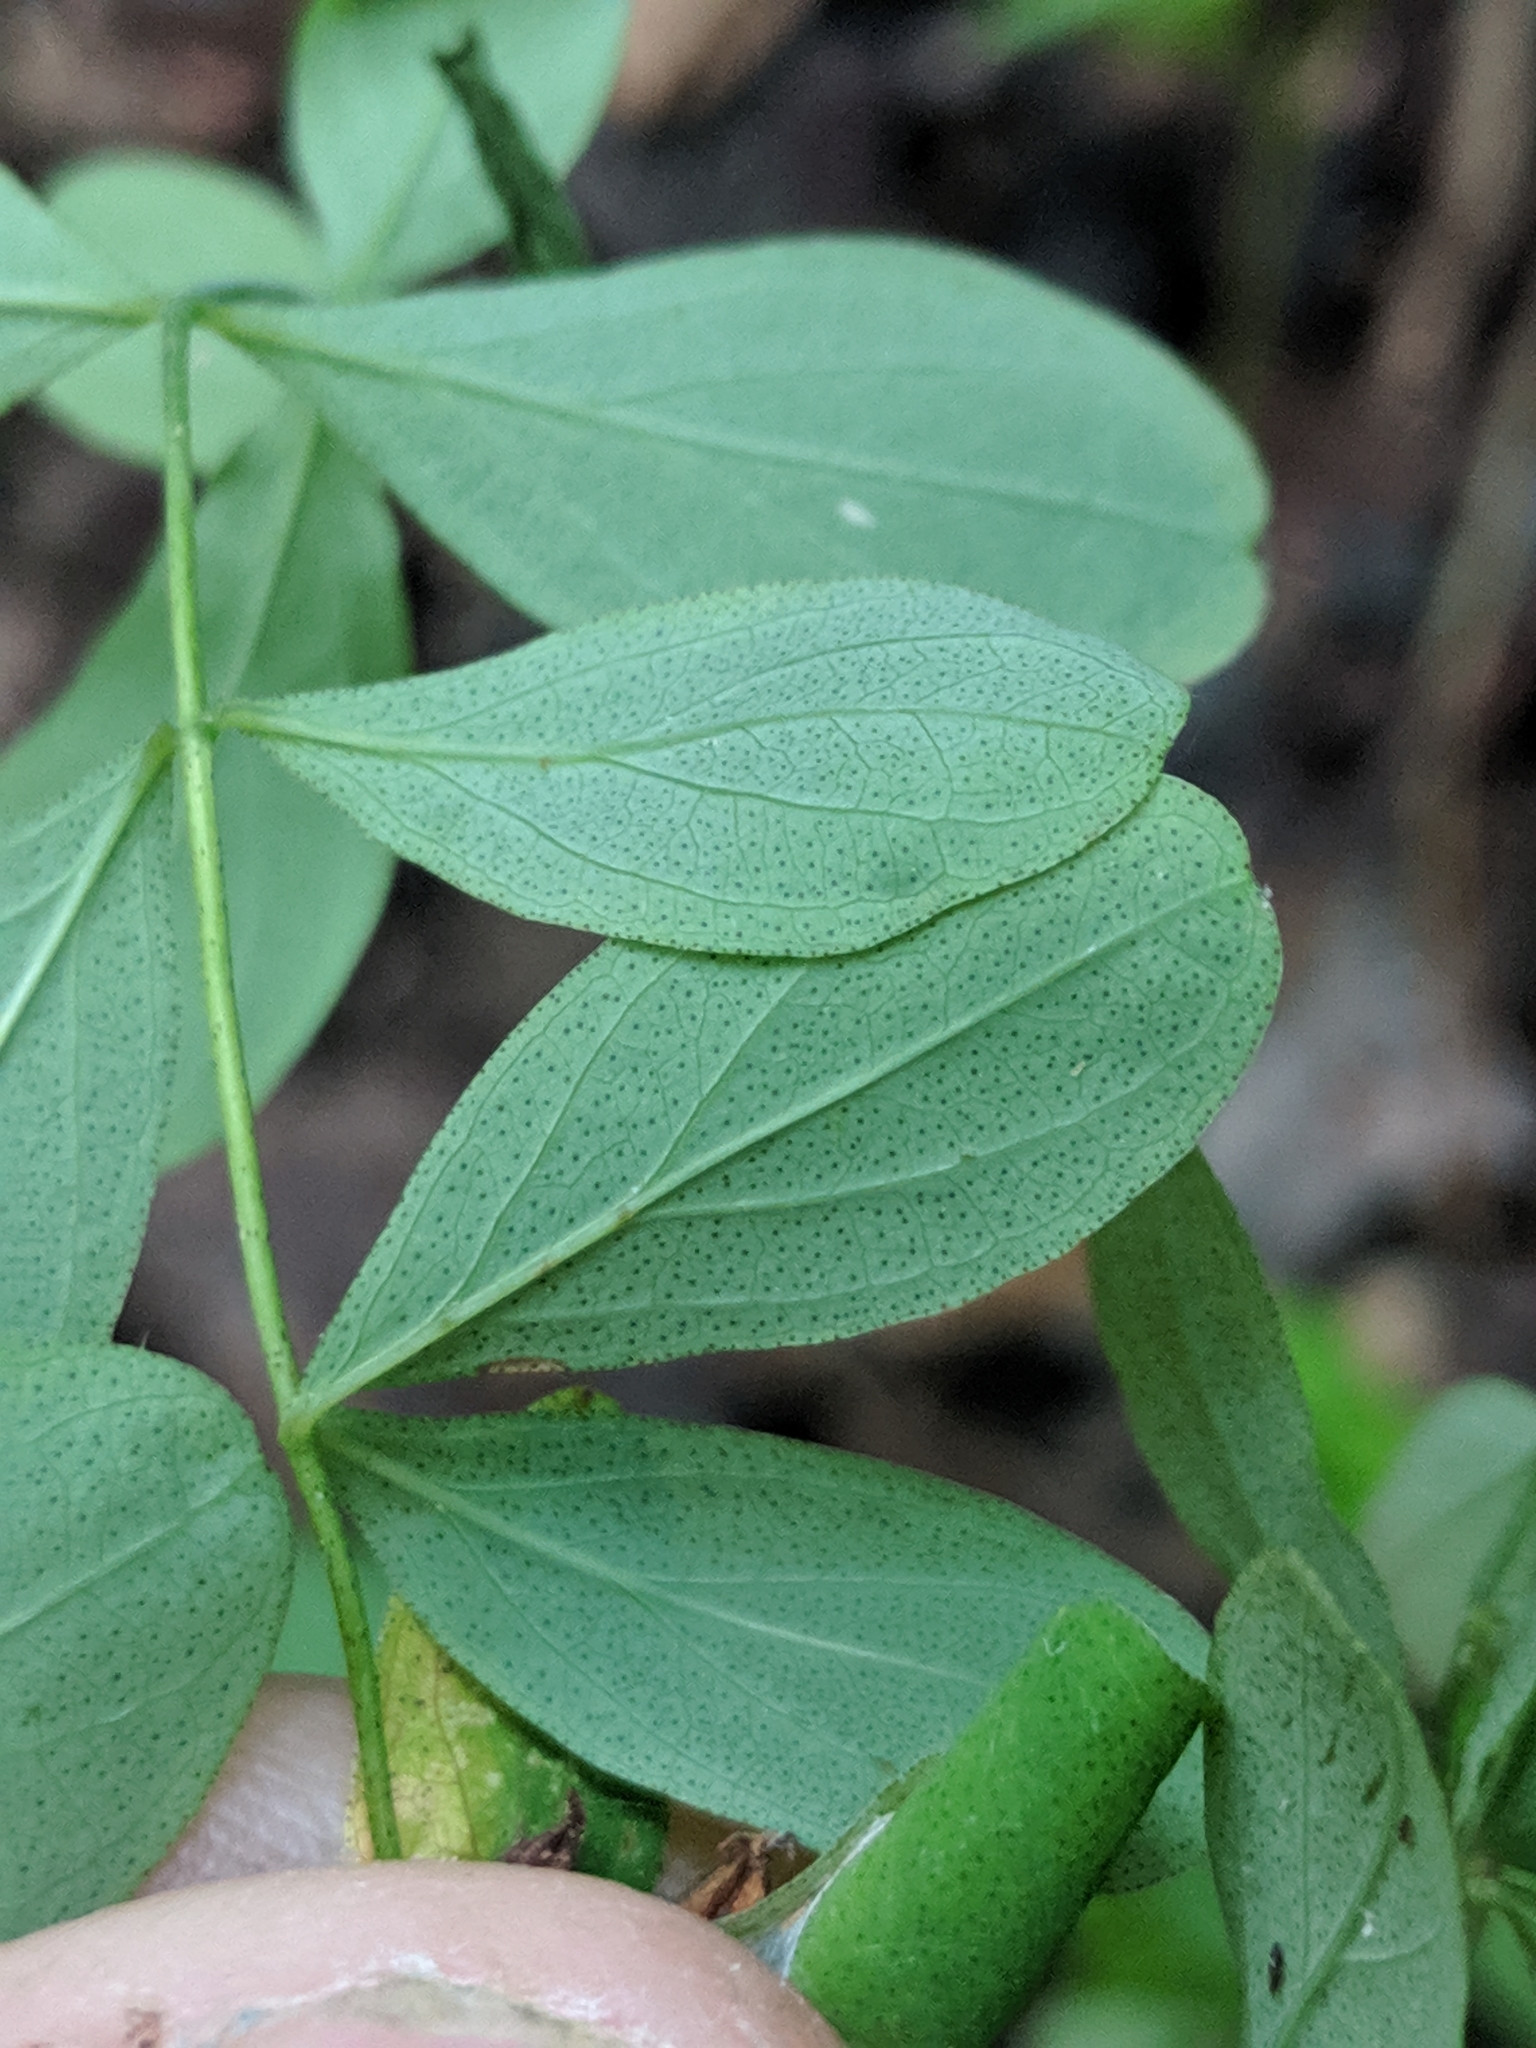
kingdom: Plantae
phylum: Tracheophyta
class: Magnoliopsida
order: Malpighiales
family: Hypericaceae
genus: Hypericum
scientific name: Hypericum punctatum
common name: Spotted st. john's-wort
